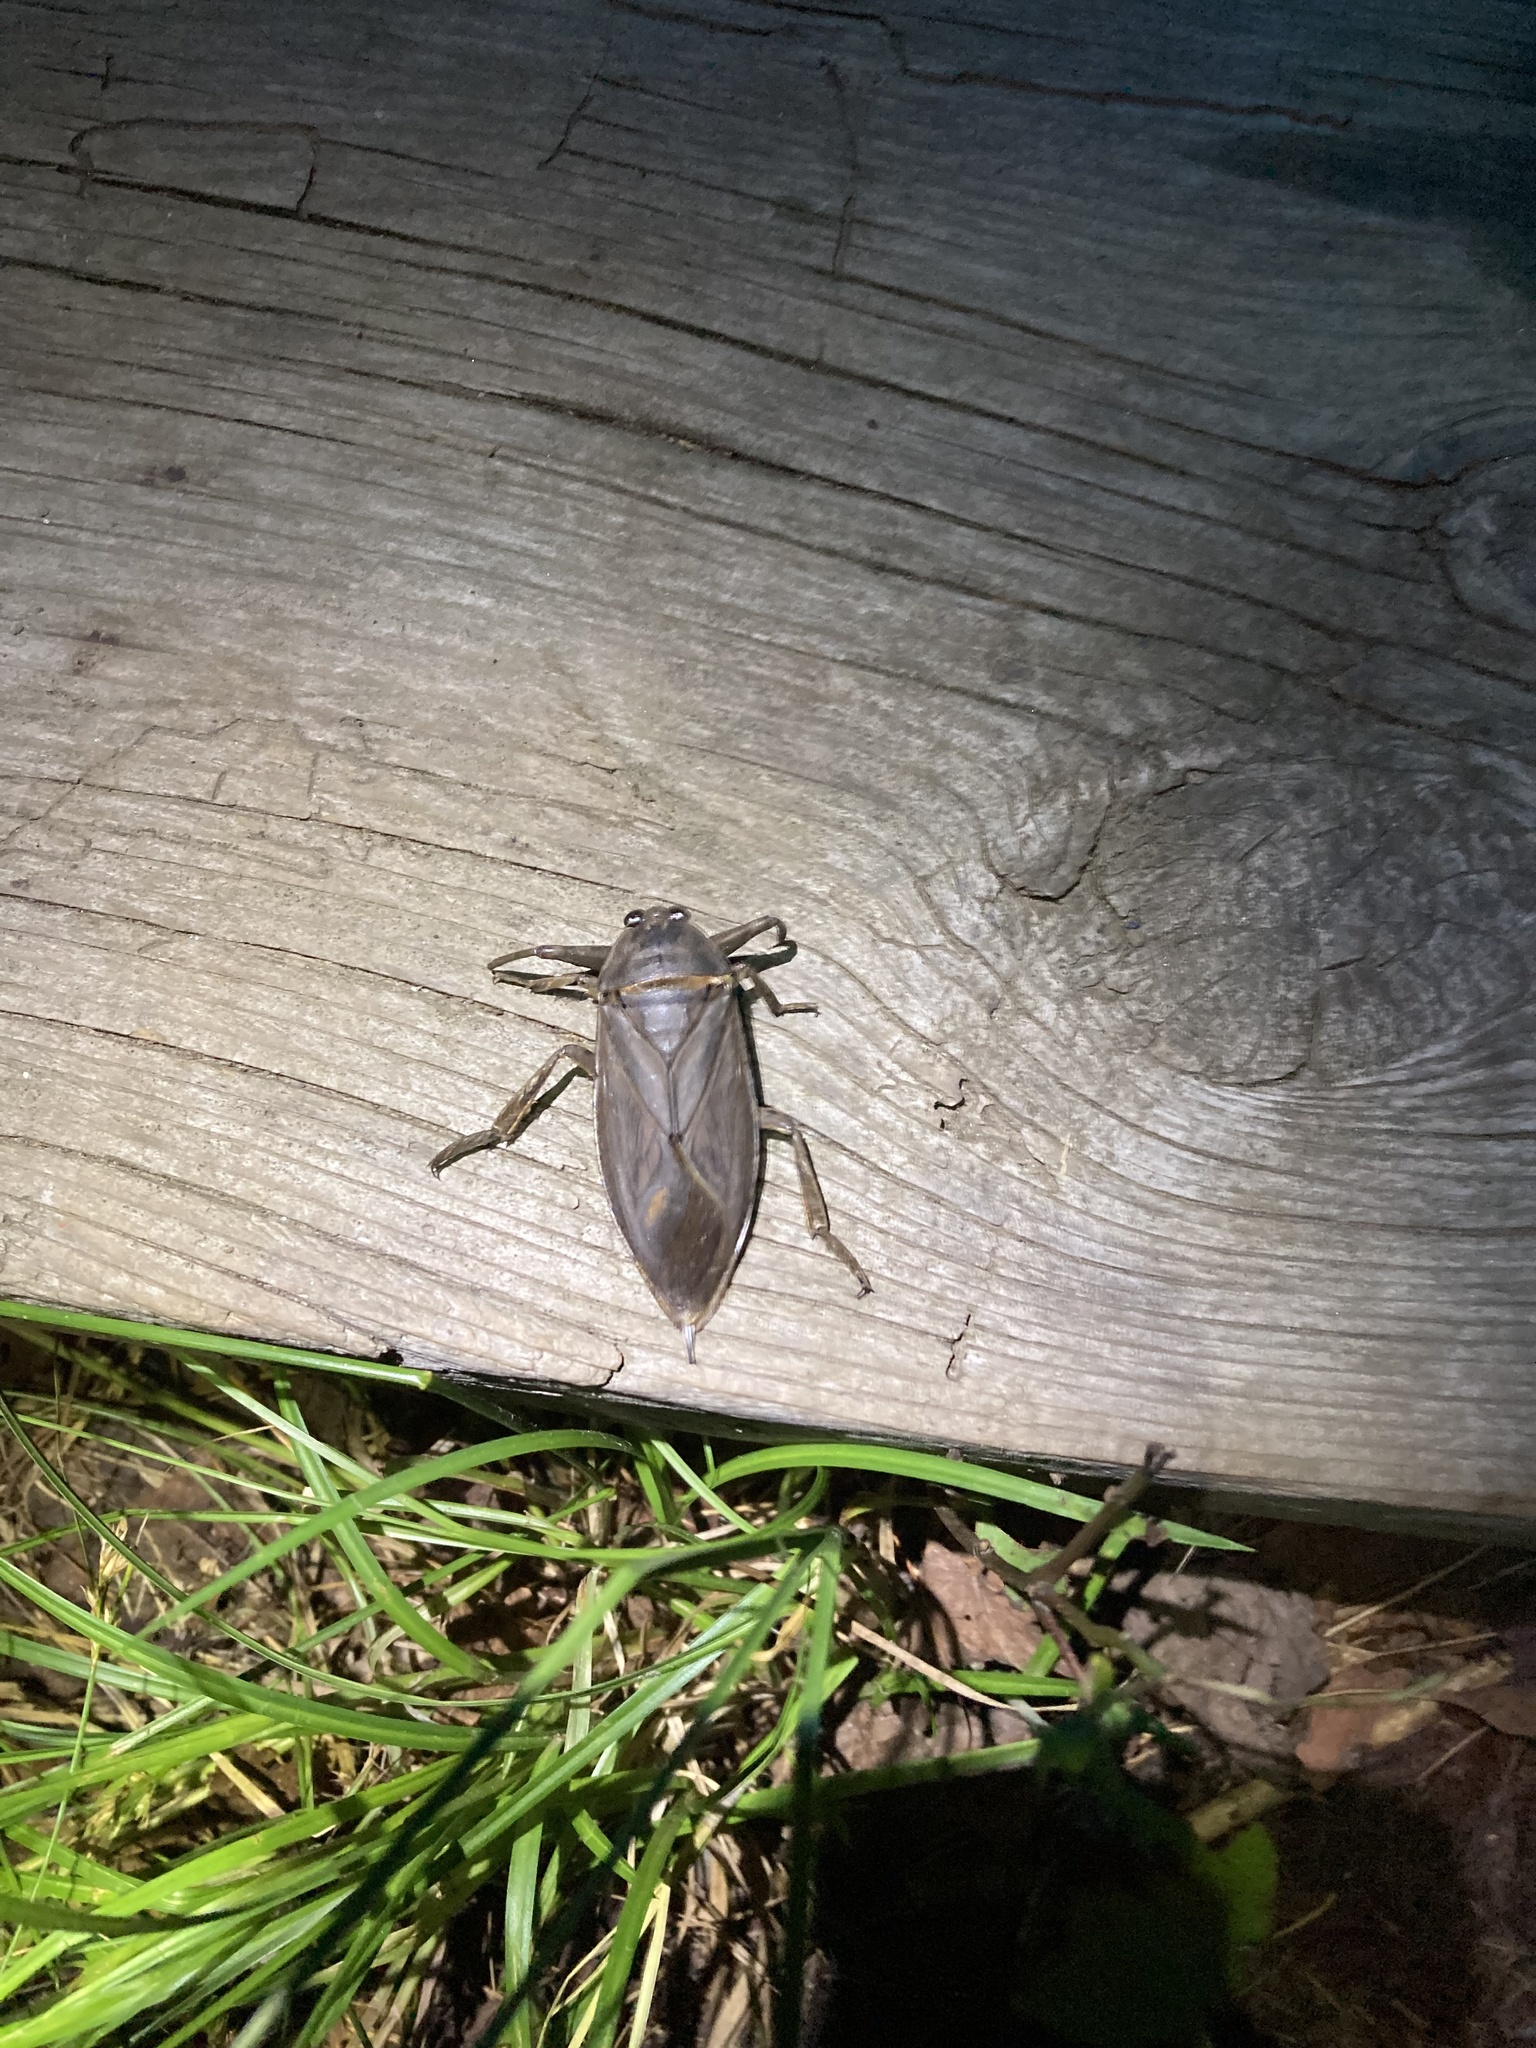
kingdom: Animalia
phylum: Arthropoda
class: Insecta
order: Hemiptera
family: Belostomatidae
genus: Lethocerus
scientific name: Lethocerus americanus
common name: Giant water bug
